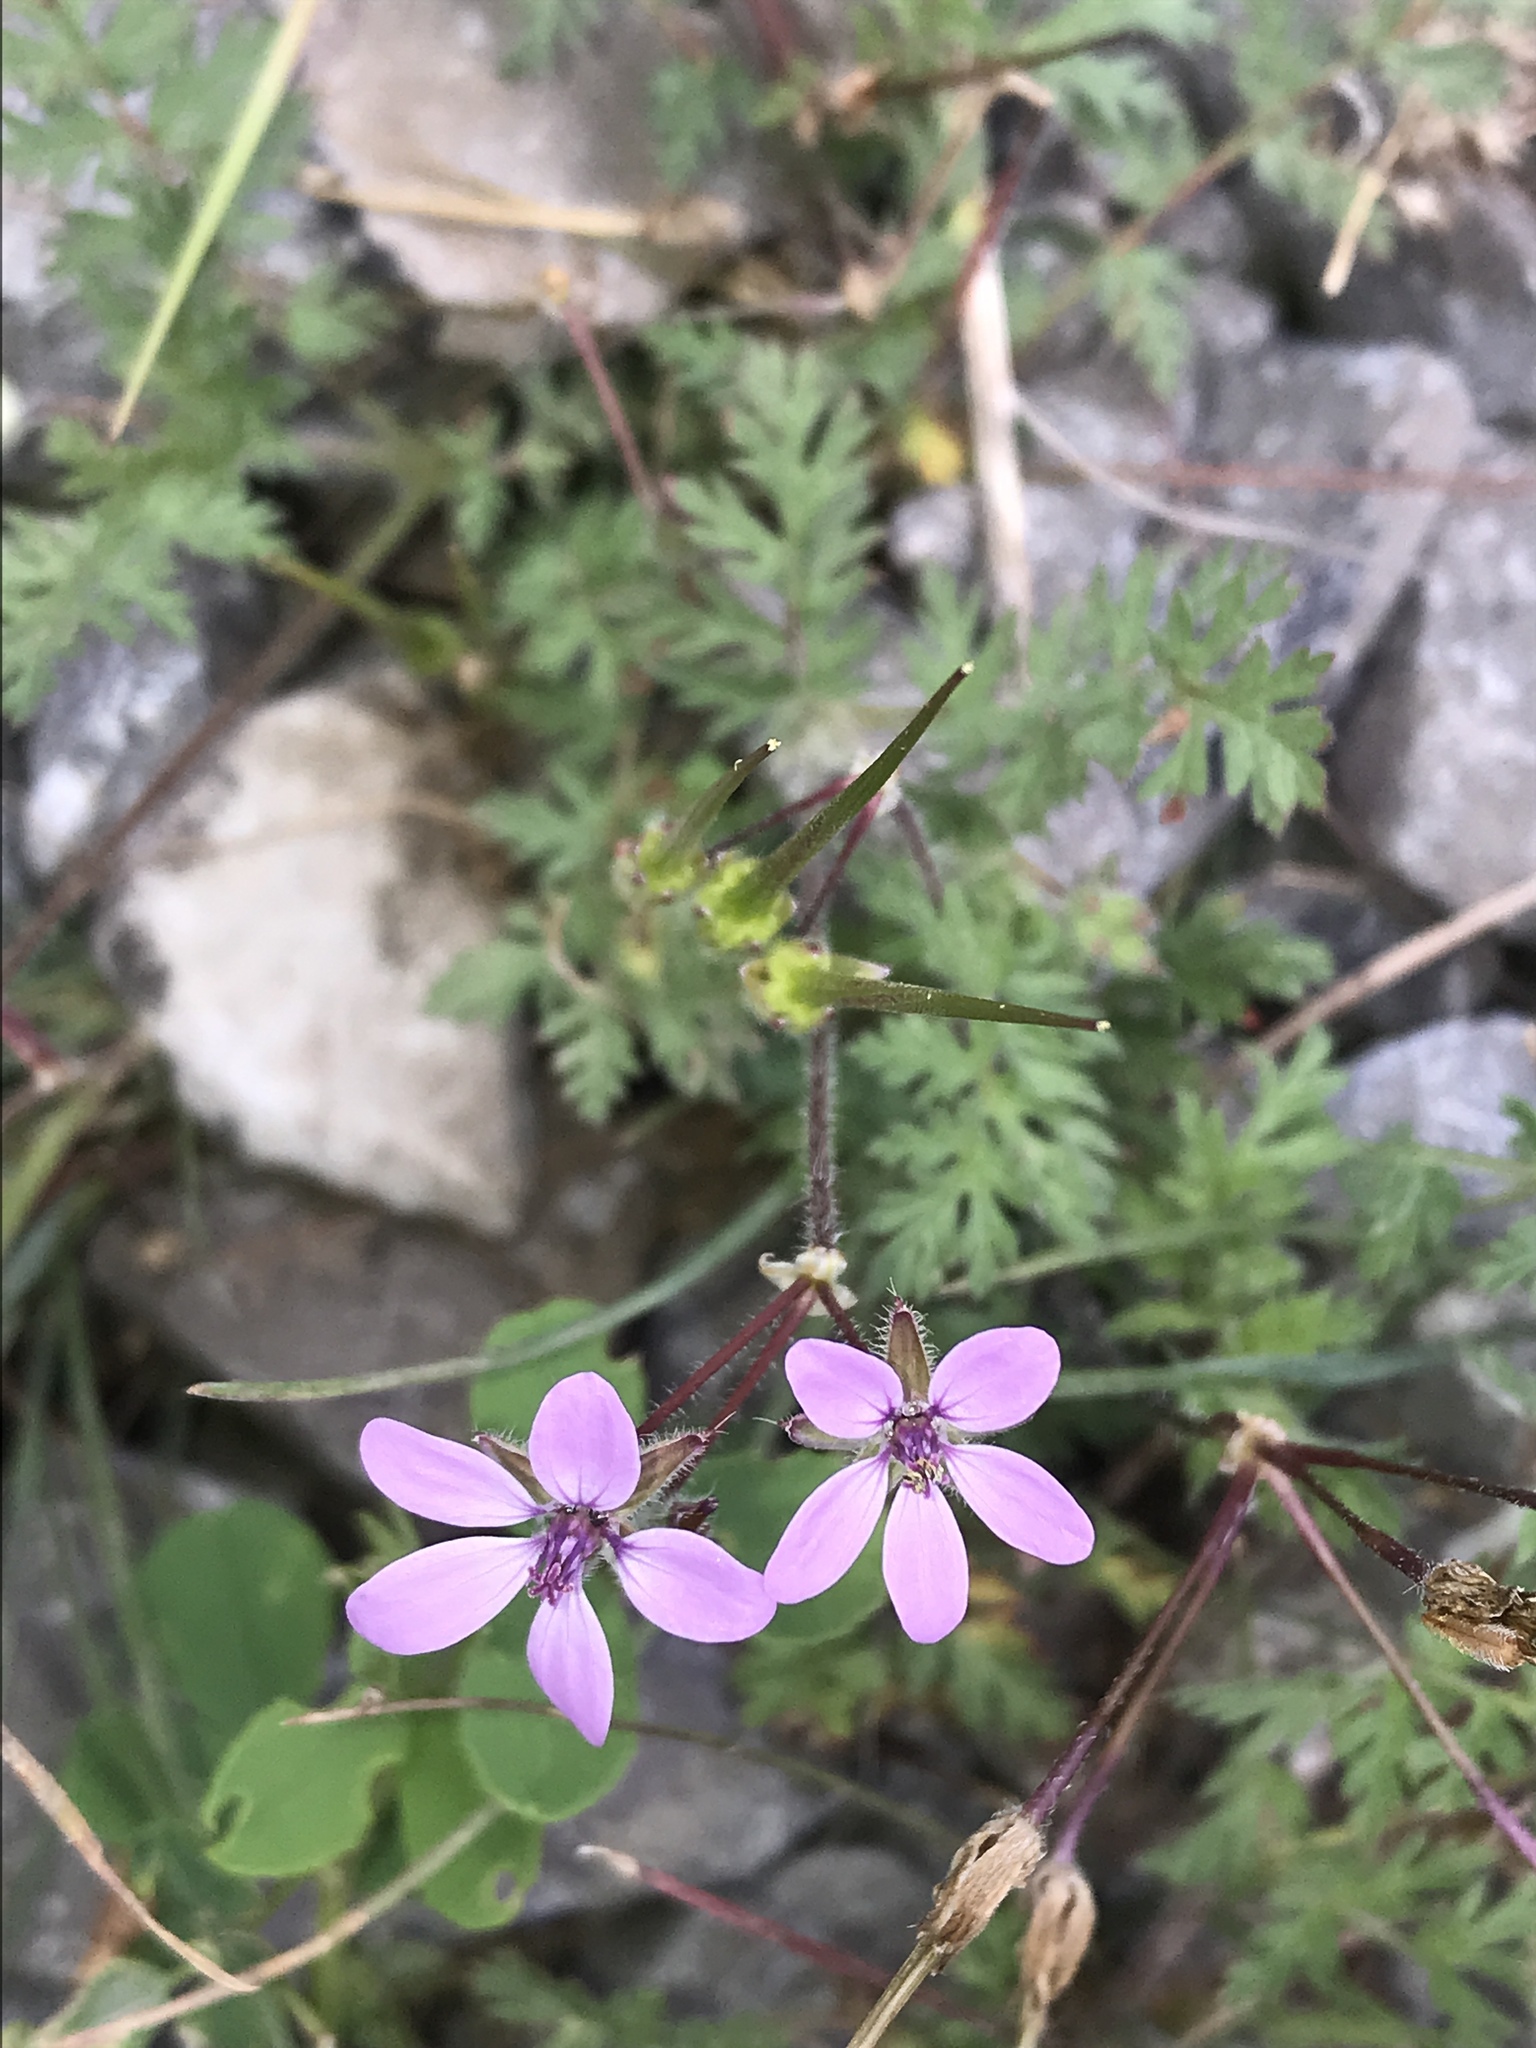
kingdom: Plantae
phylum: Tracheophyta
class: Magnoliopsida
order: Geraniales
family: Geraniaceae
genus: Erodium
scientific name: Erodium cicutarium
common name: Common stork's-bill
